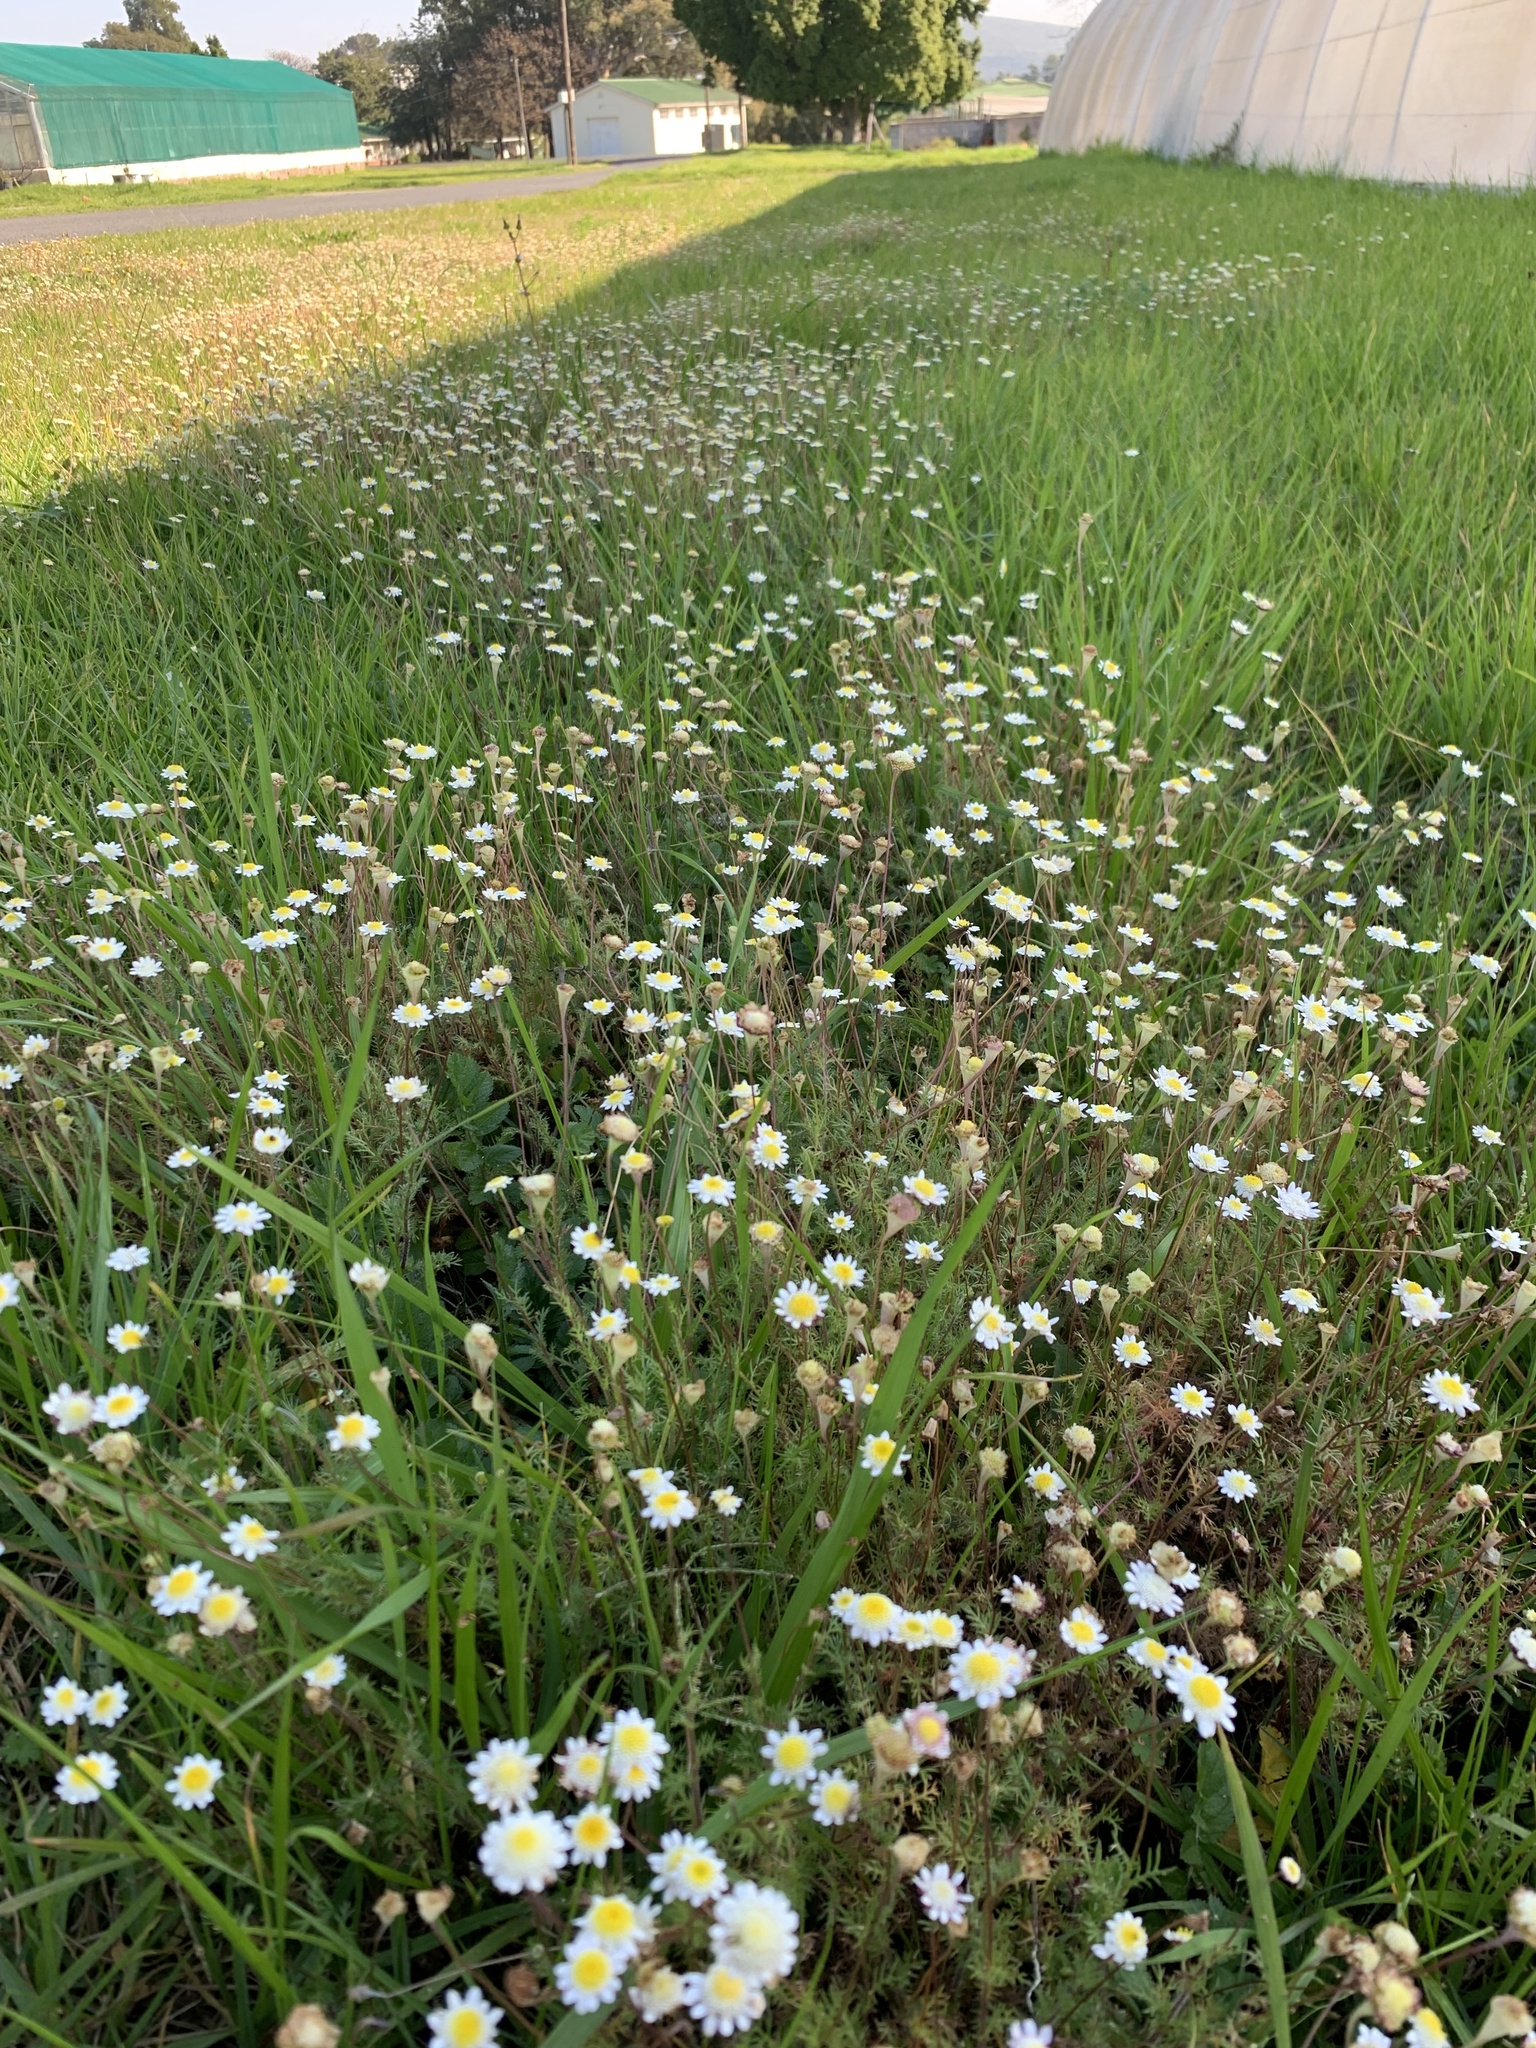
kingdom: Plantae
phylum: Tracheophyta
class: Magnoliopsida
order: Asterales
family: Asteraceae
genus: Cotula
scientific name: Cotula turbinata
